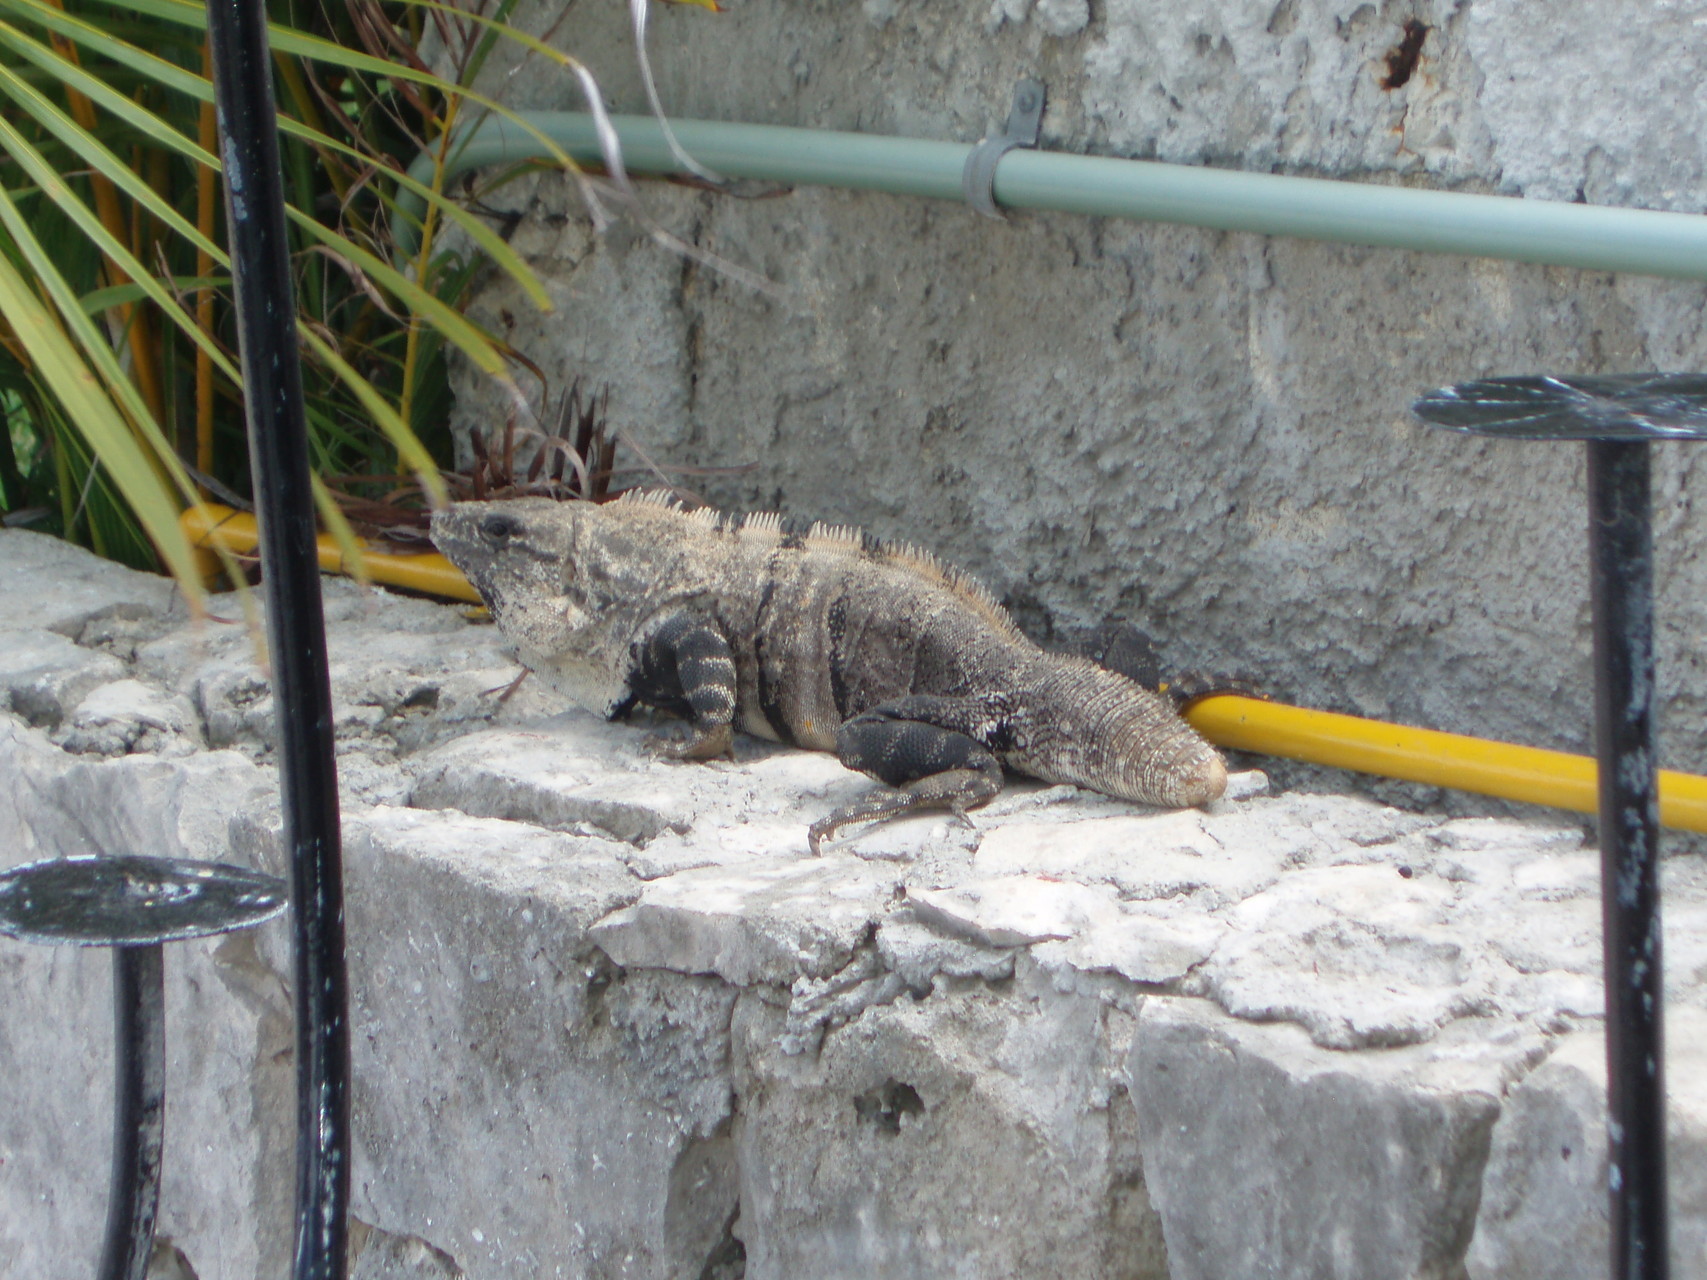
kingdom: Animalia
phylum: Chordata
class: Squamata
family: Iguanidae
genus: Ctenosaura
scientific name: Ctenosaura similis
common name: Black spiny-tailed iguana
